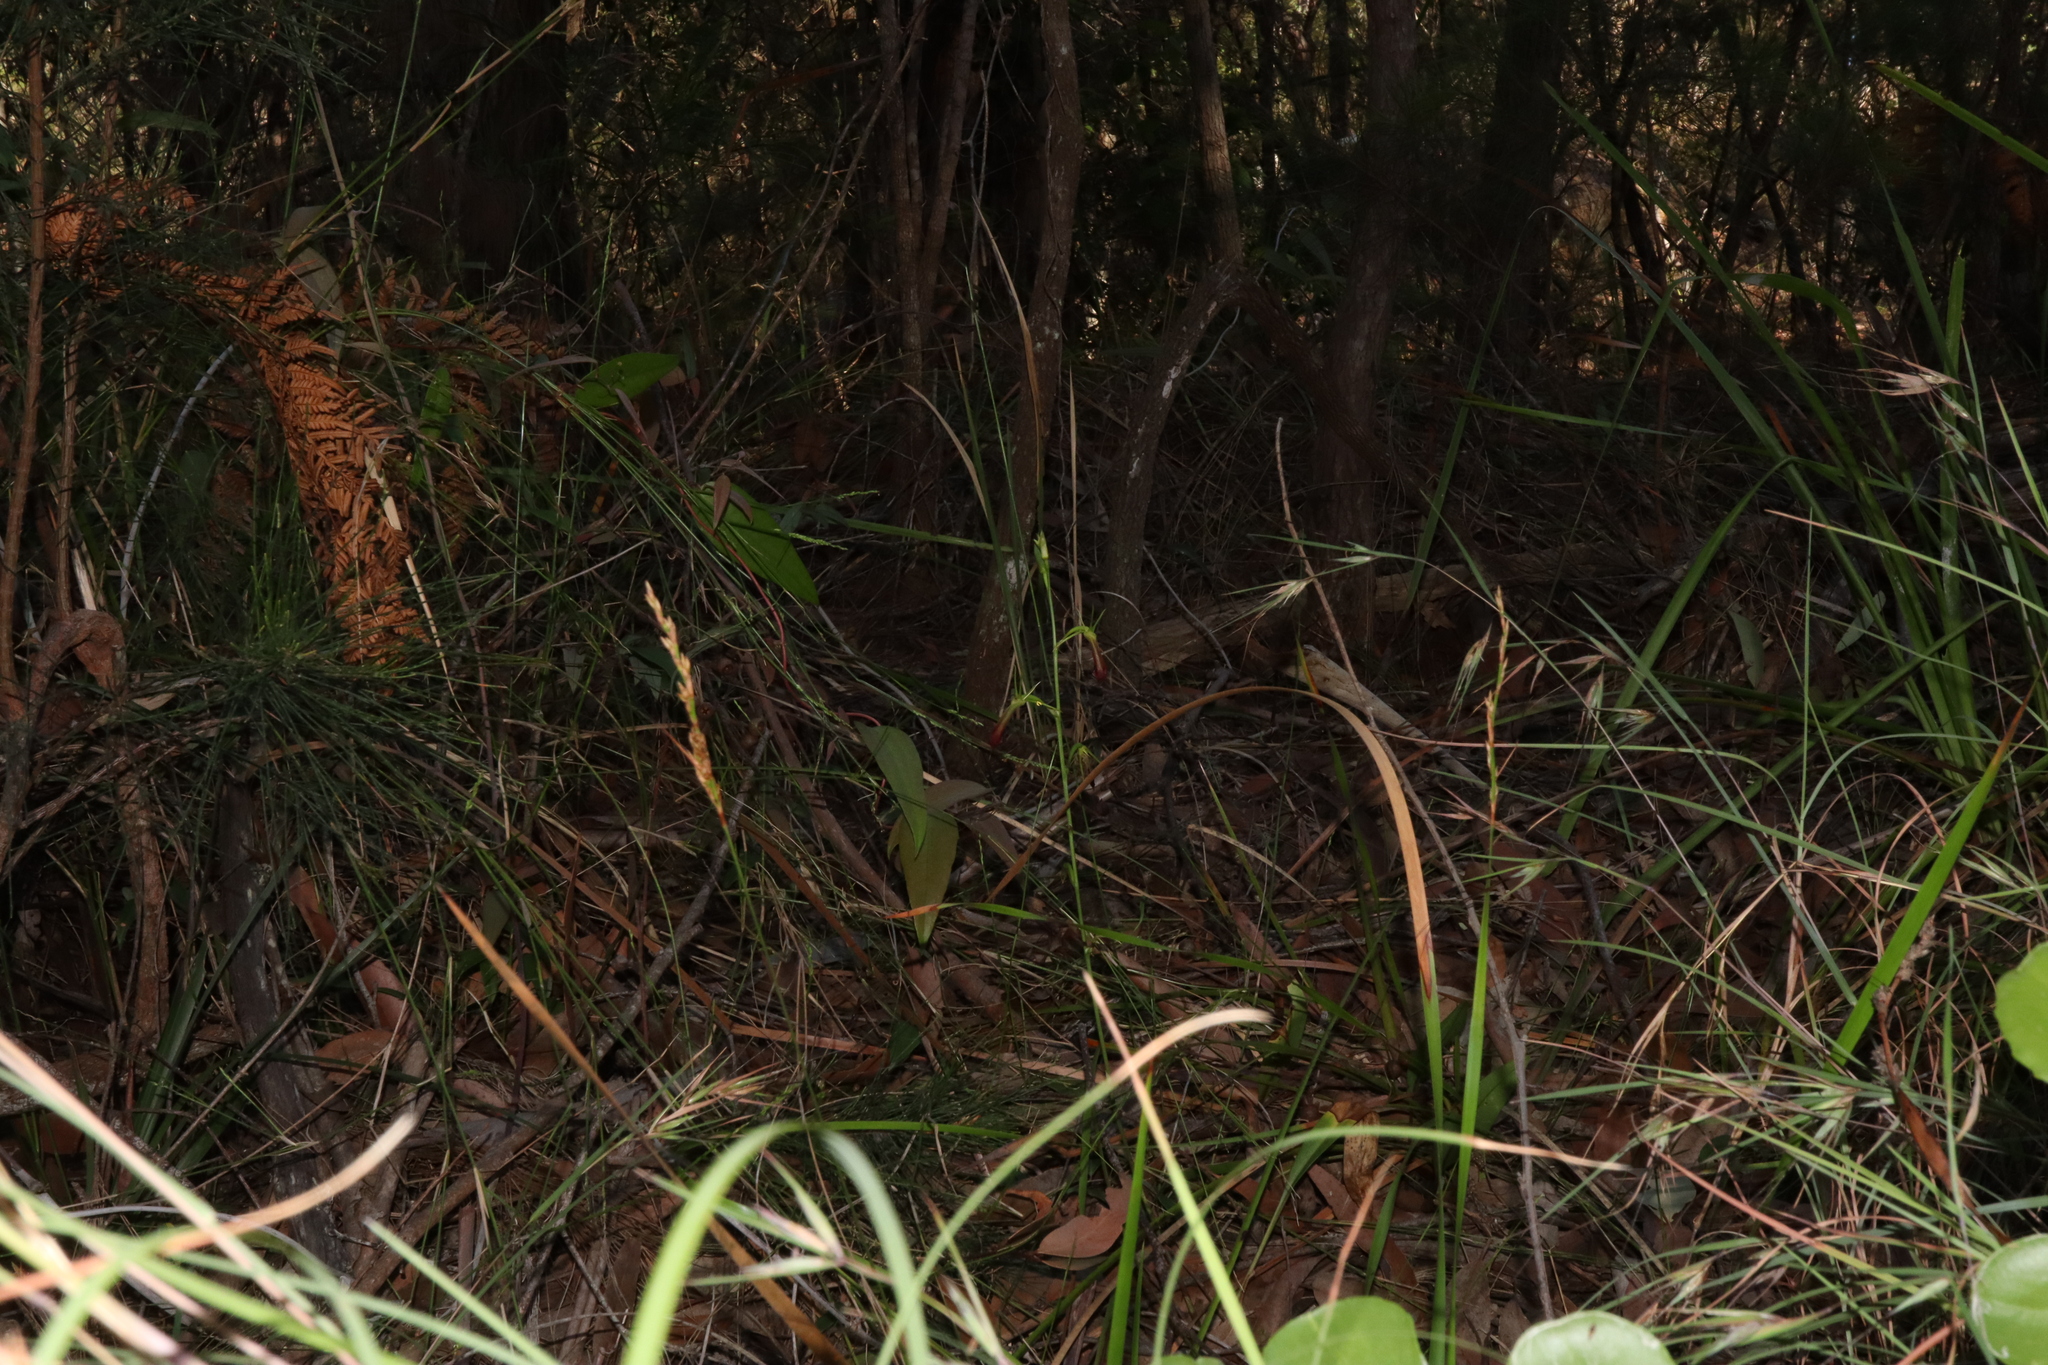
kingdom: Plantae
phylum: Tracheophyta
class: Liliopsida
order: Asparagales
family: Orchidaceae
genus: Cryptostylis
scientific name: Cryptostylis subulata
